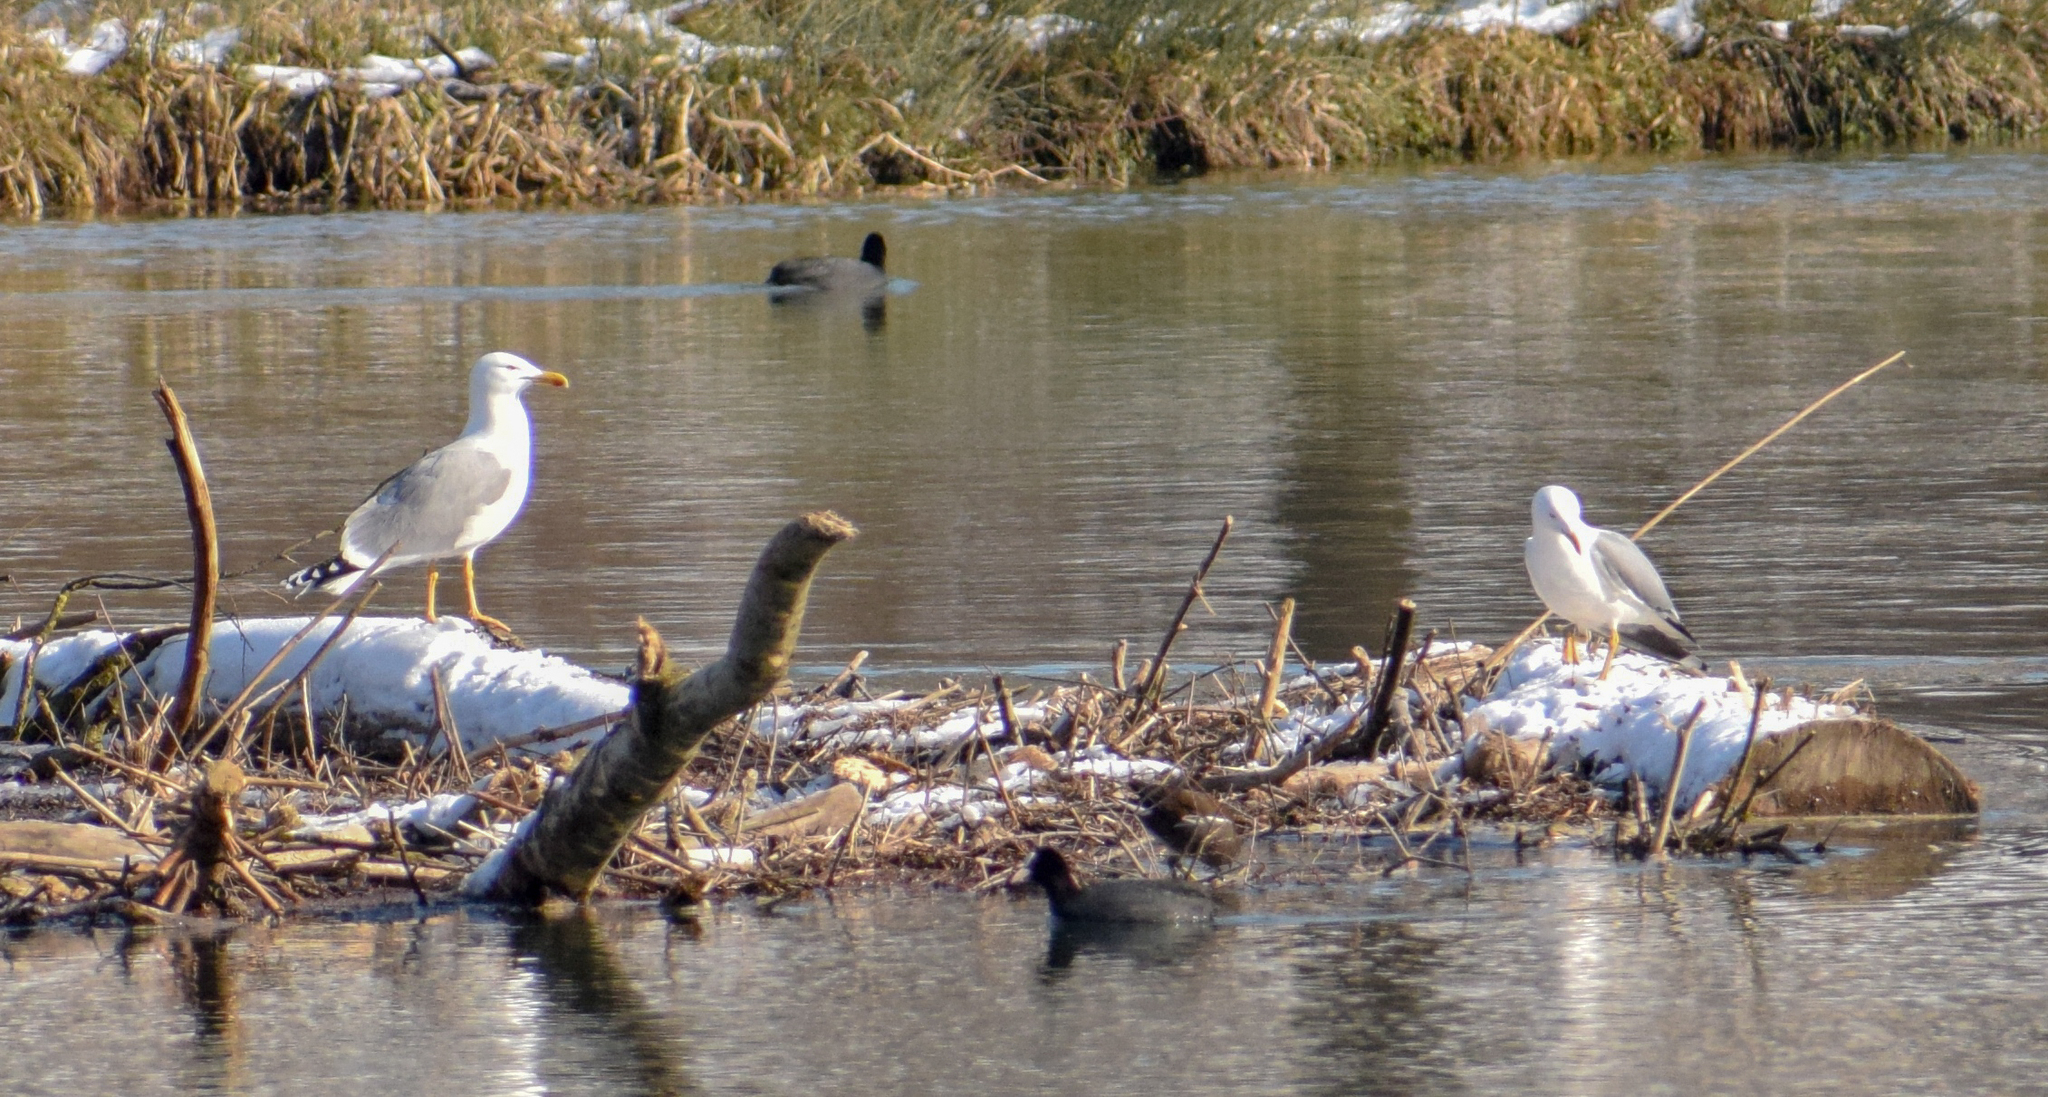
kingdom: Animalia
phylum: Chordata
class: Aves
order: Charadriiformes
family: Laridae
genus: Larus
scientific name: Larus michahellis
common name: Yellow-legged gull
